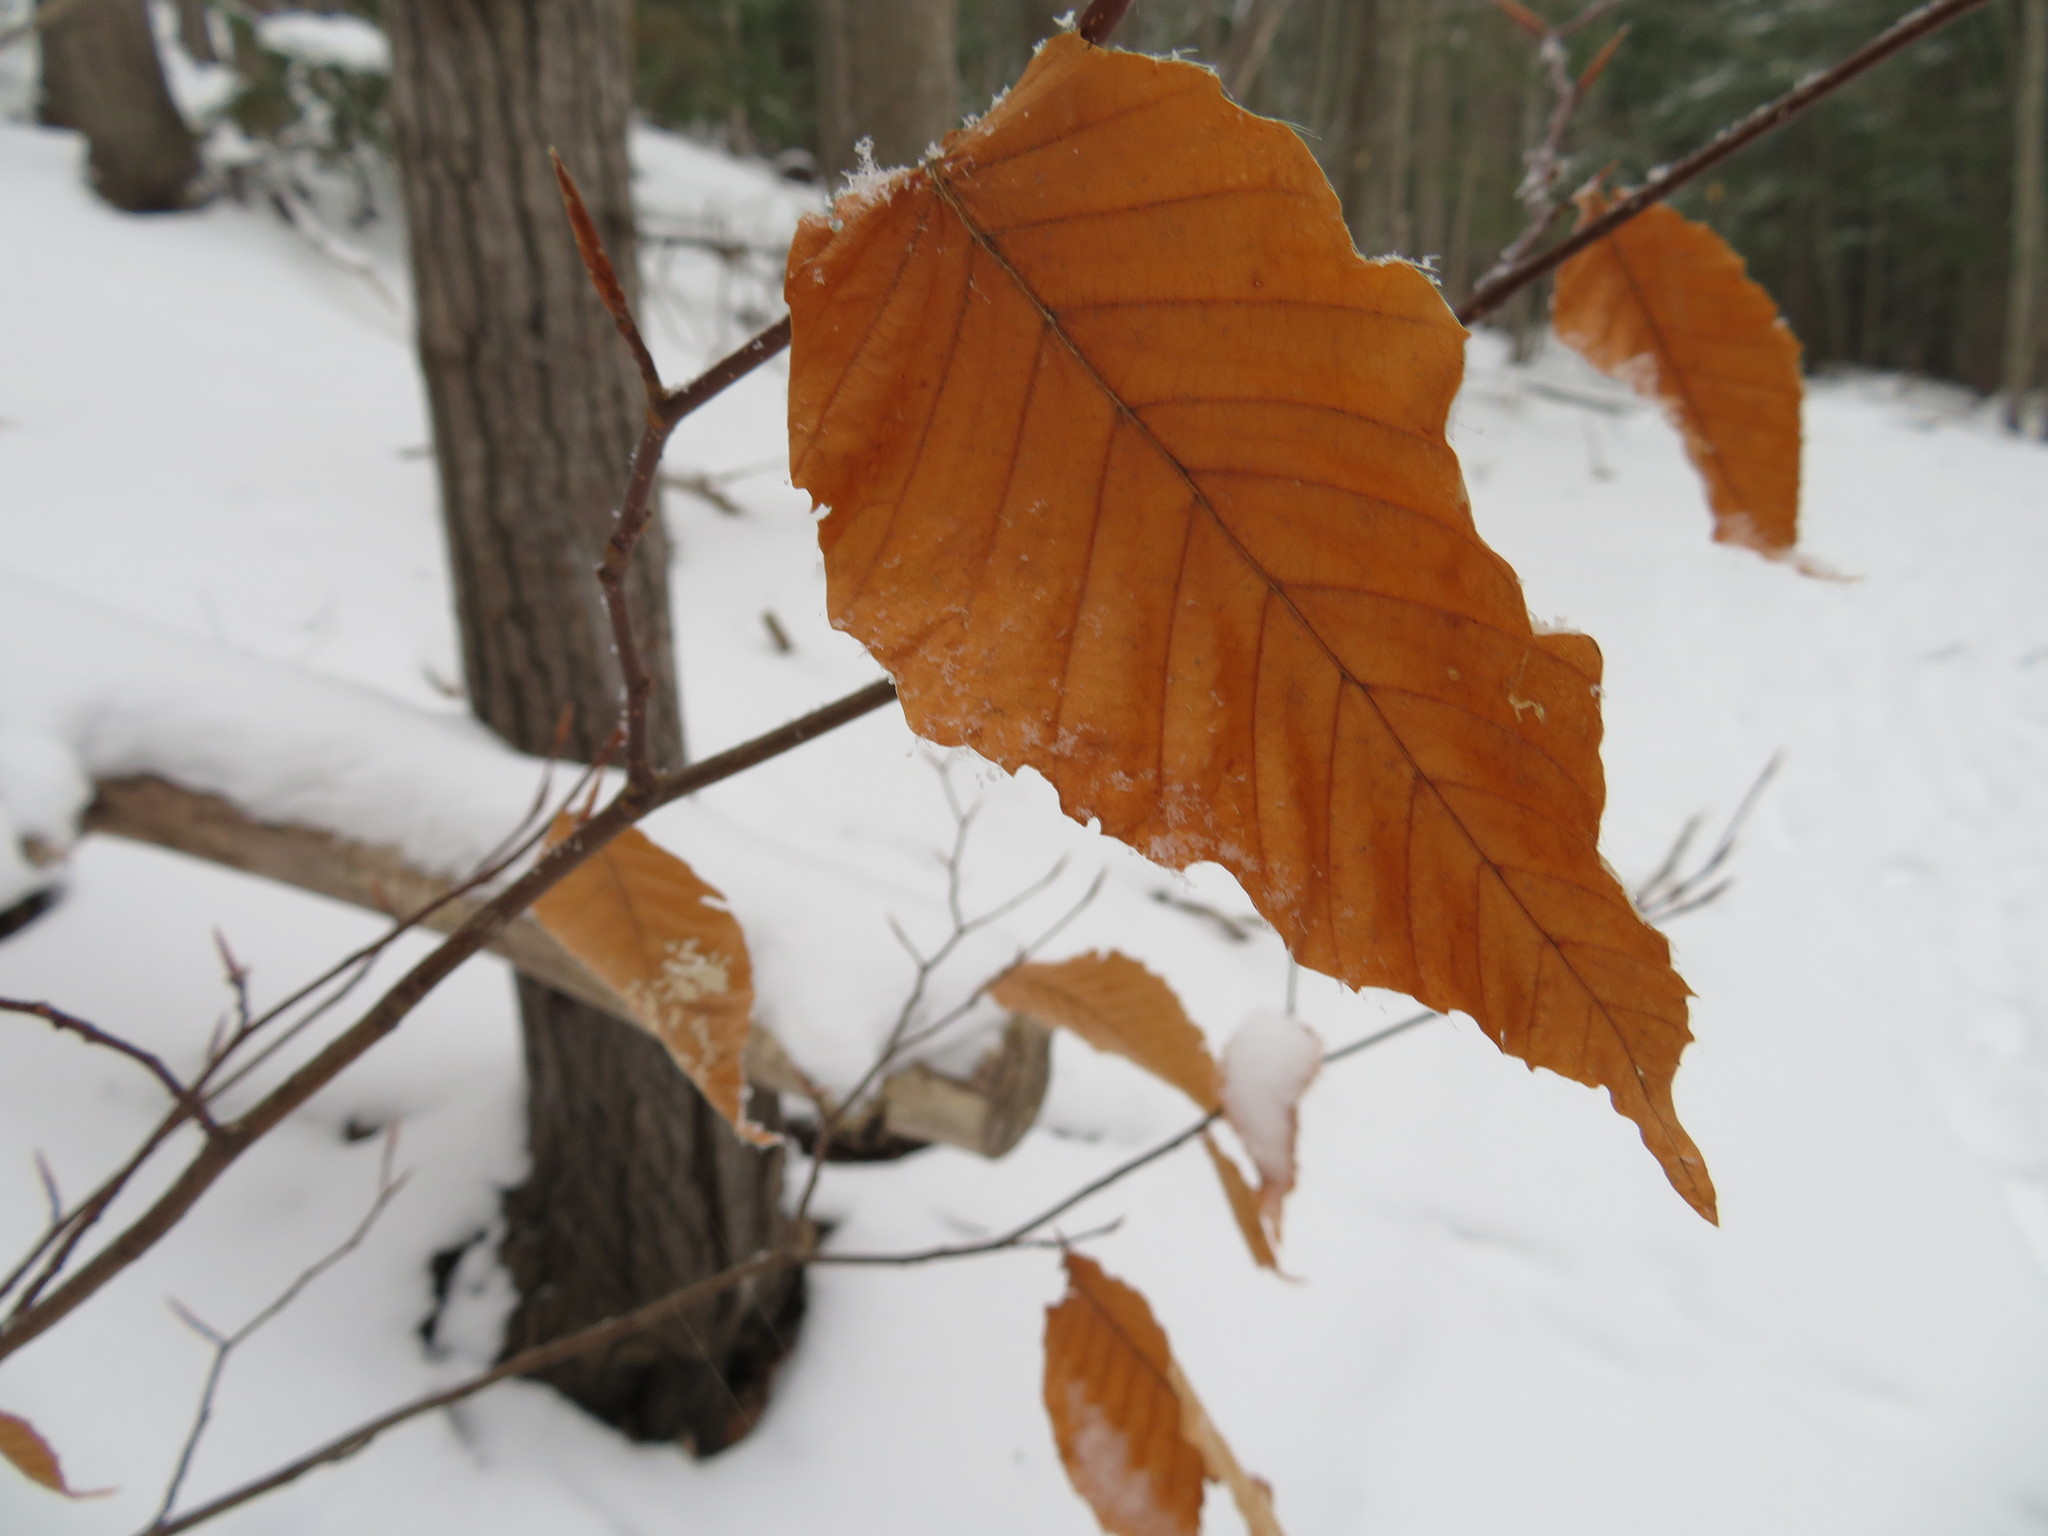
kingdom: Plantae
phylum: Tracheophyta
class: Magnoliopsida
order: Fagales
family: Fagaceae
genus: Fagus
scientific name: Fagus grandifolia
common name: American beech
